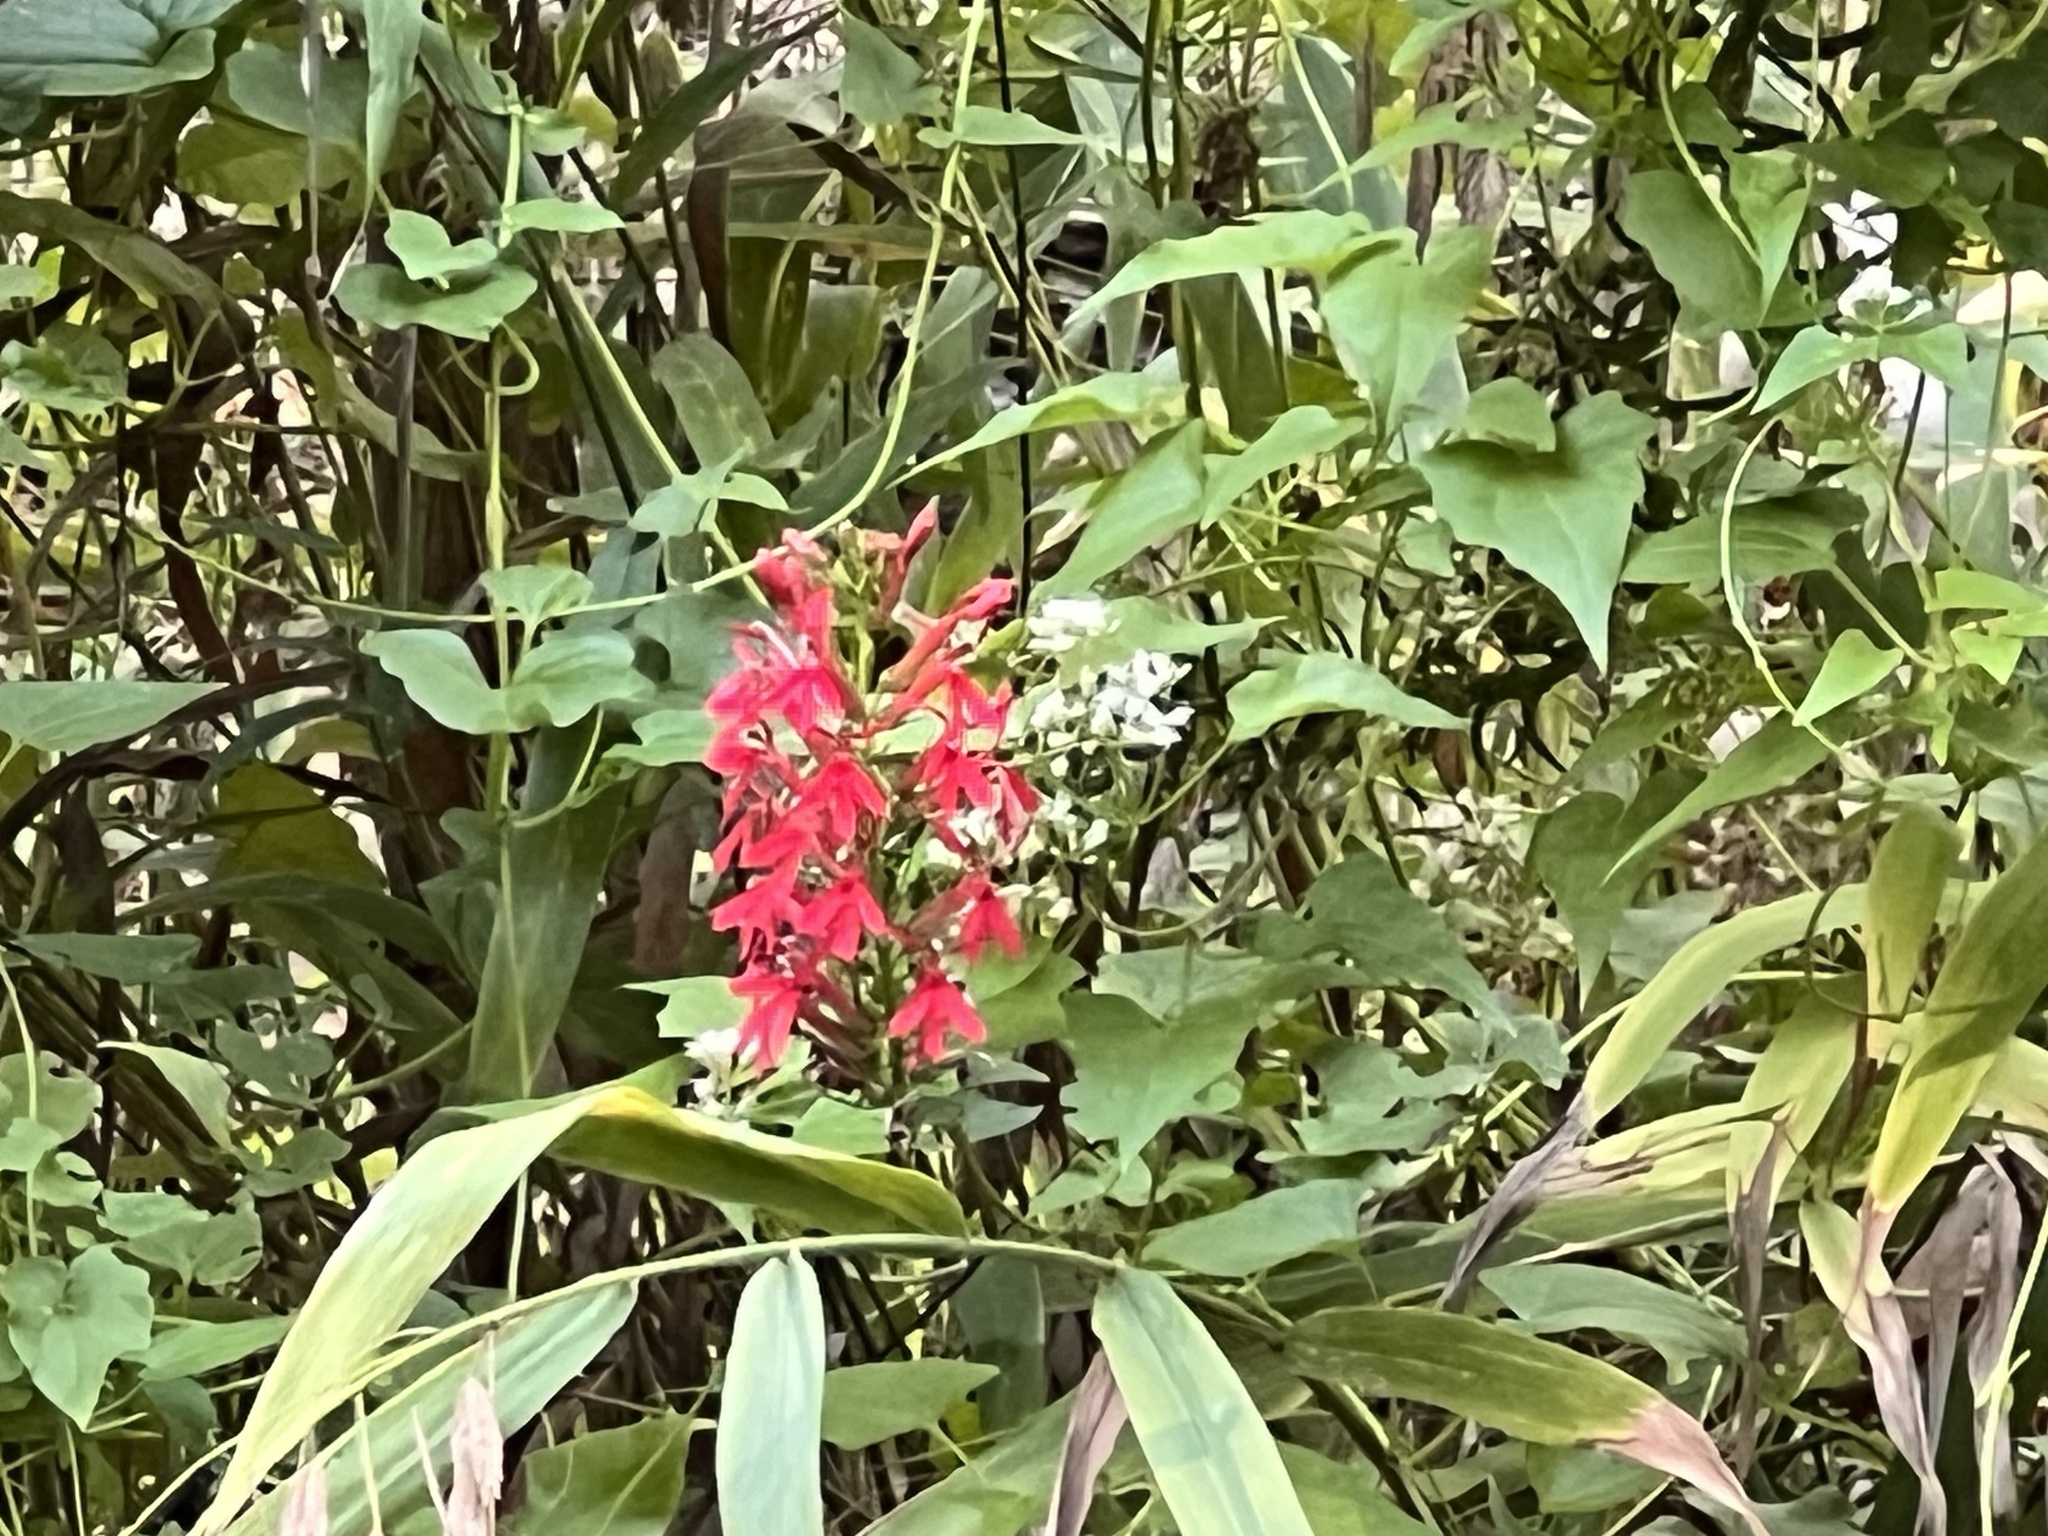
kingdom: Plantae
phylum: Tracheophyta
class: Magnoliopsida
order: Asterales
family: Campanulaceae
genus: Lobelia
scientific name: Lobelia cardinalis
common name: Cardinal flower
